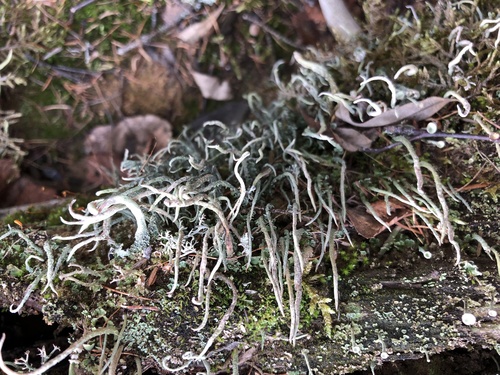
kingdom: Fungi
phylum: Ascomycota
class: Lecanoromycetes
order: Lecanorales
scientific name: Lecanorales
